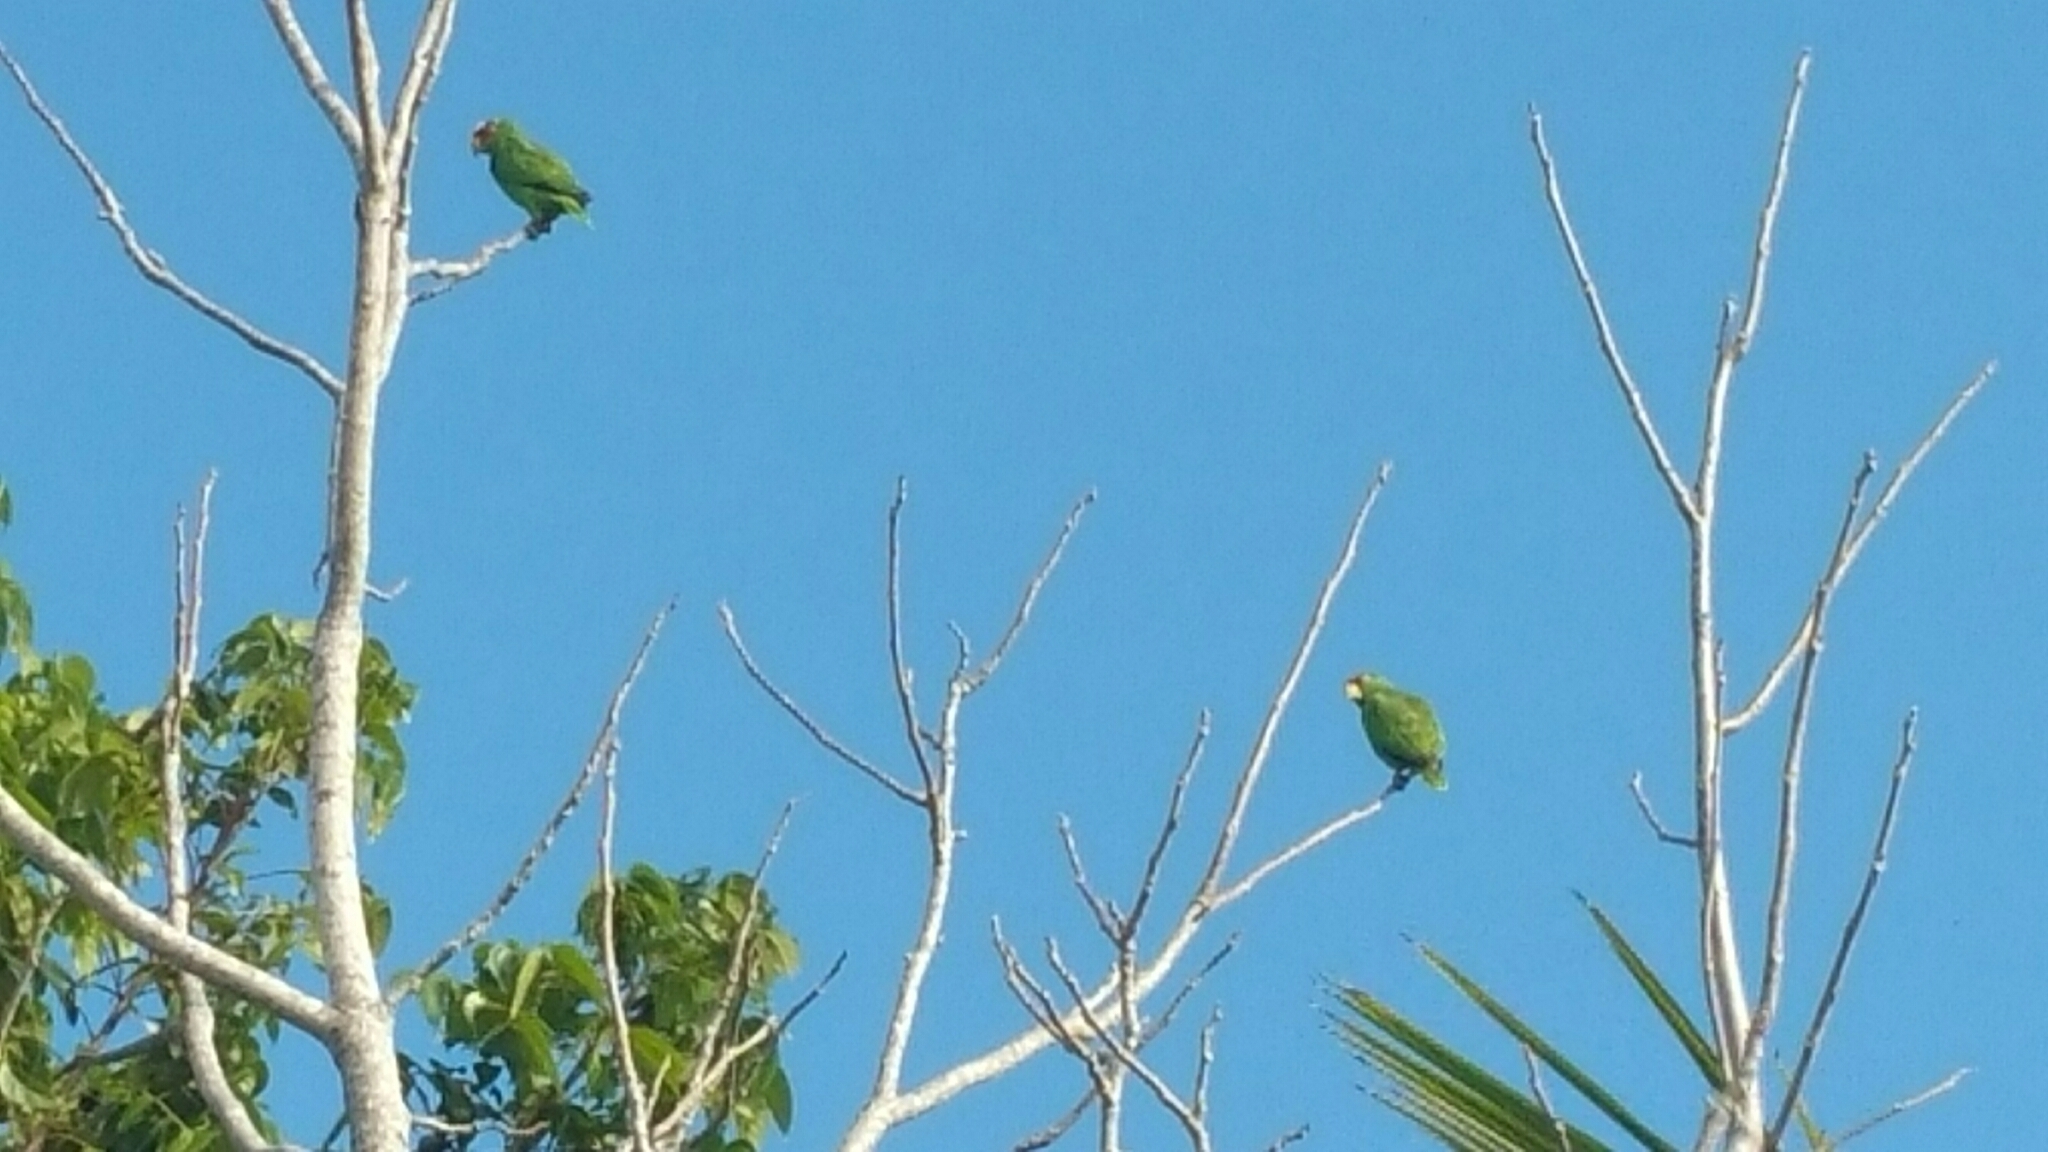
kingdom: Animalia
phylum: Chordata
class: Aves
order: Psittaciformes
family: Psittacidae
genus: Amazona
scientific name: Amazona albifrons
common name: White-fronted amazon
